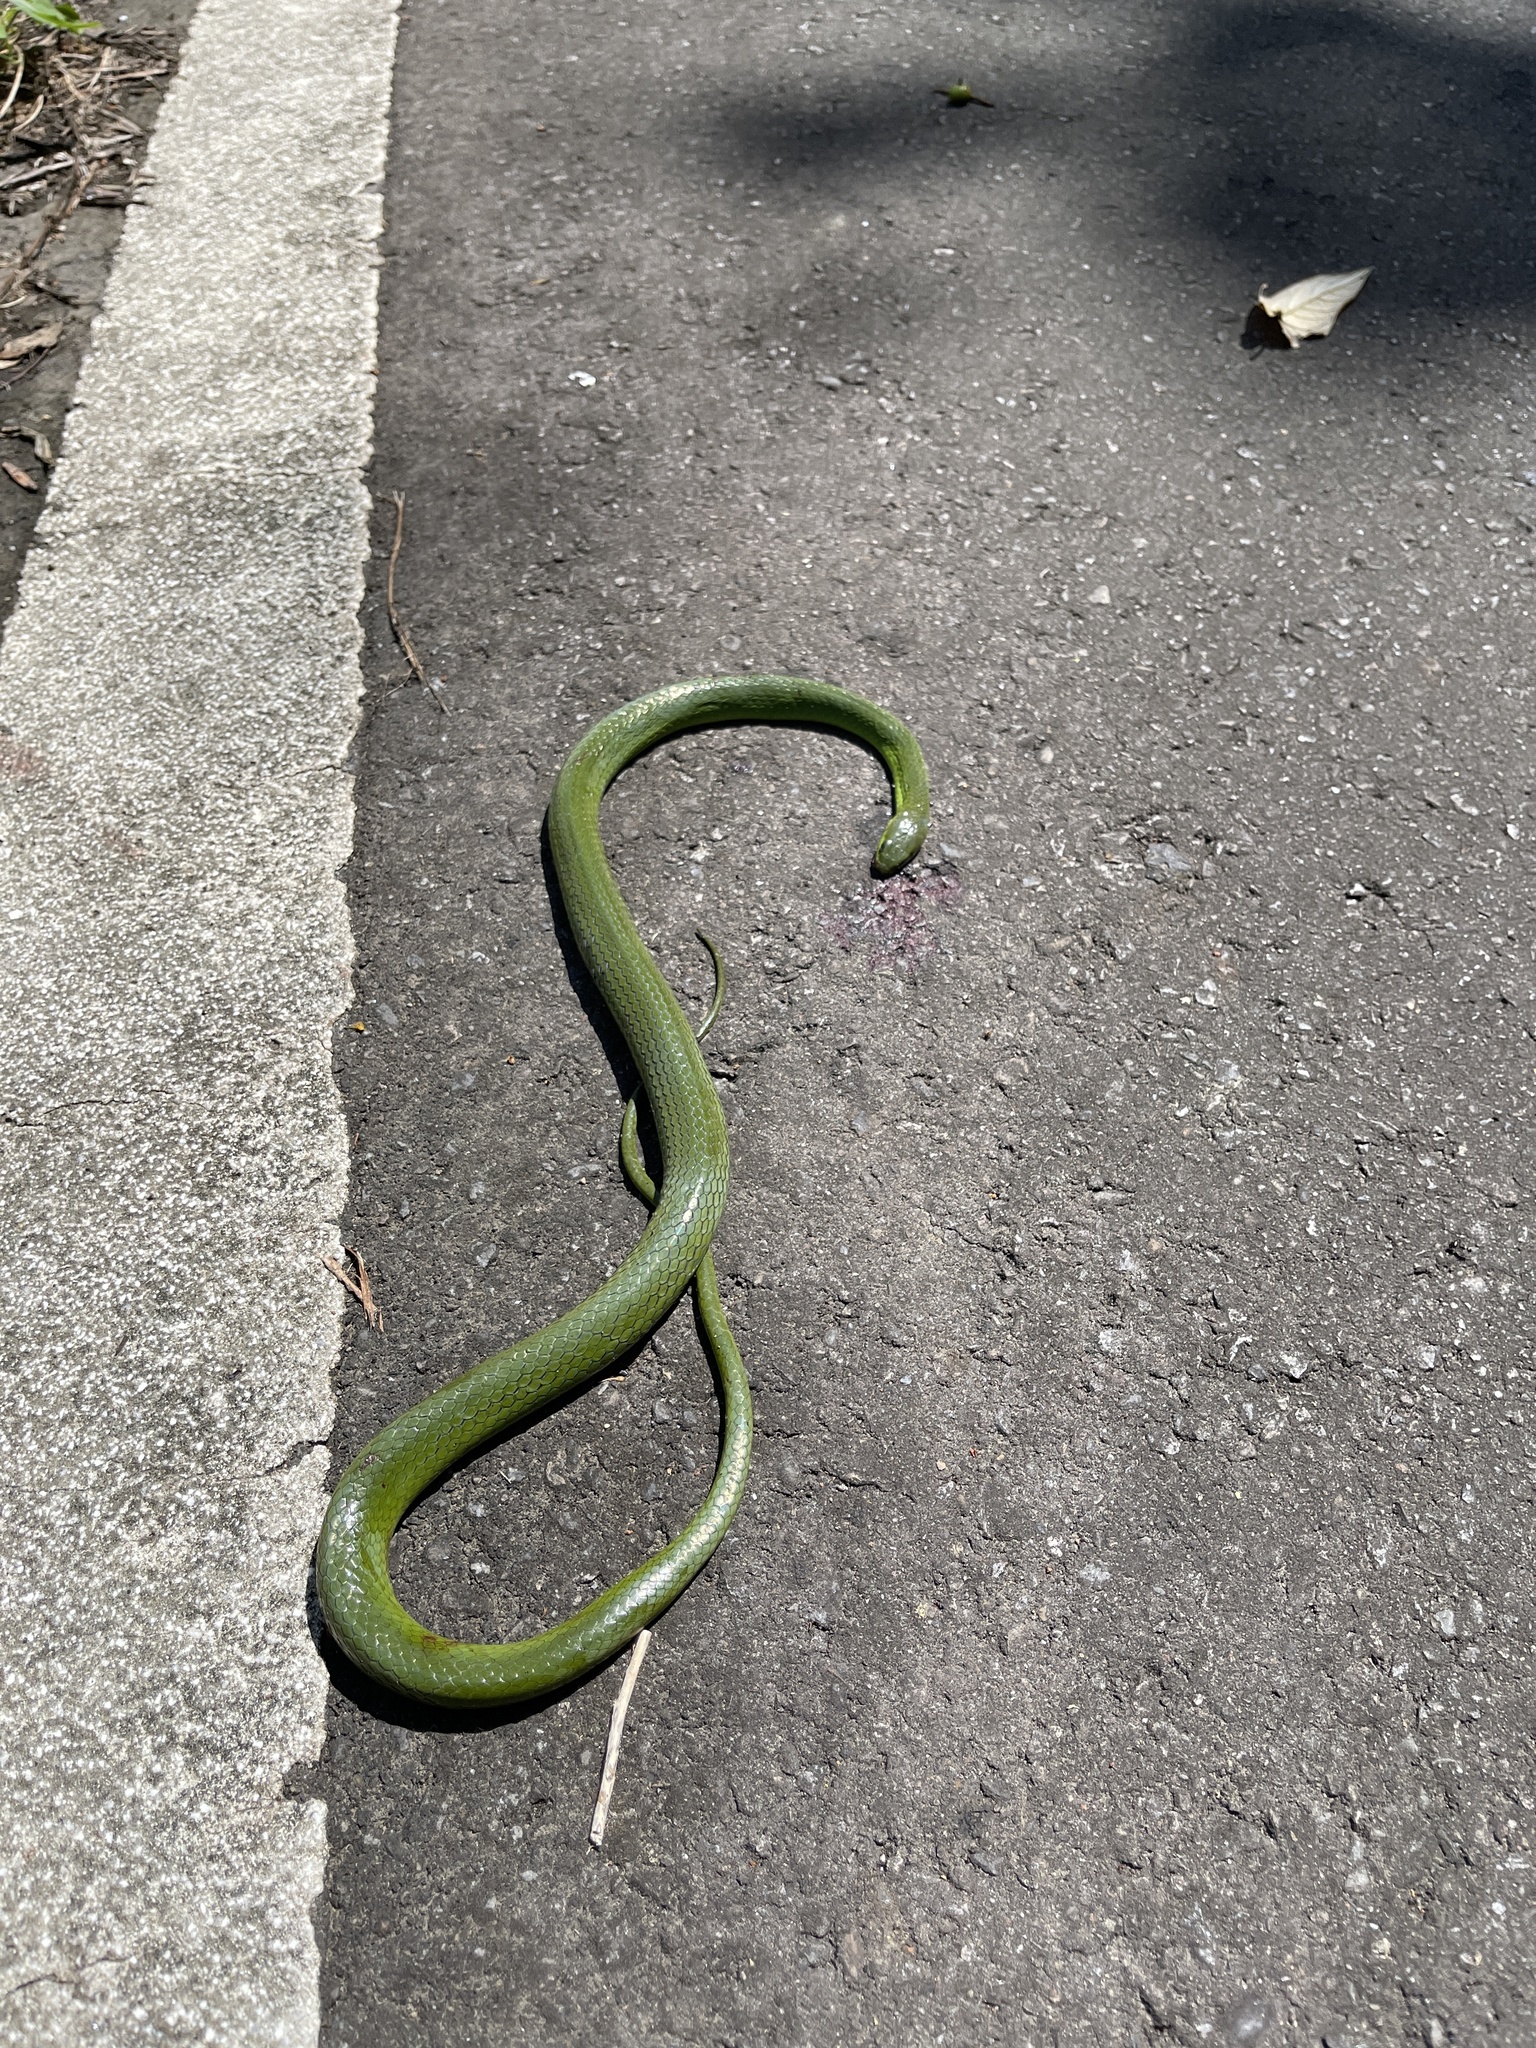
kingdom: Animalia
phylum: Chordata
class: Squamata
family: Colubridae
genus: Ptyas
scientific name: Ptyas major
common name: Chinese green snake
